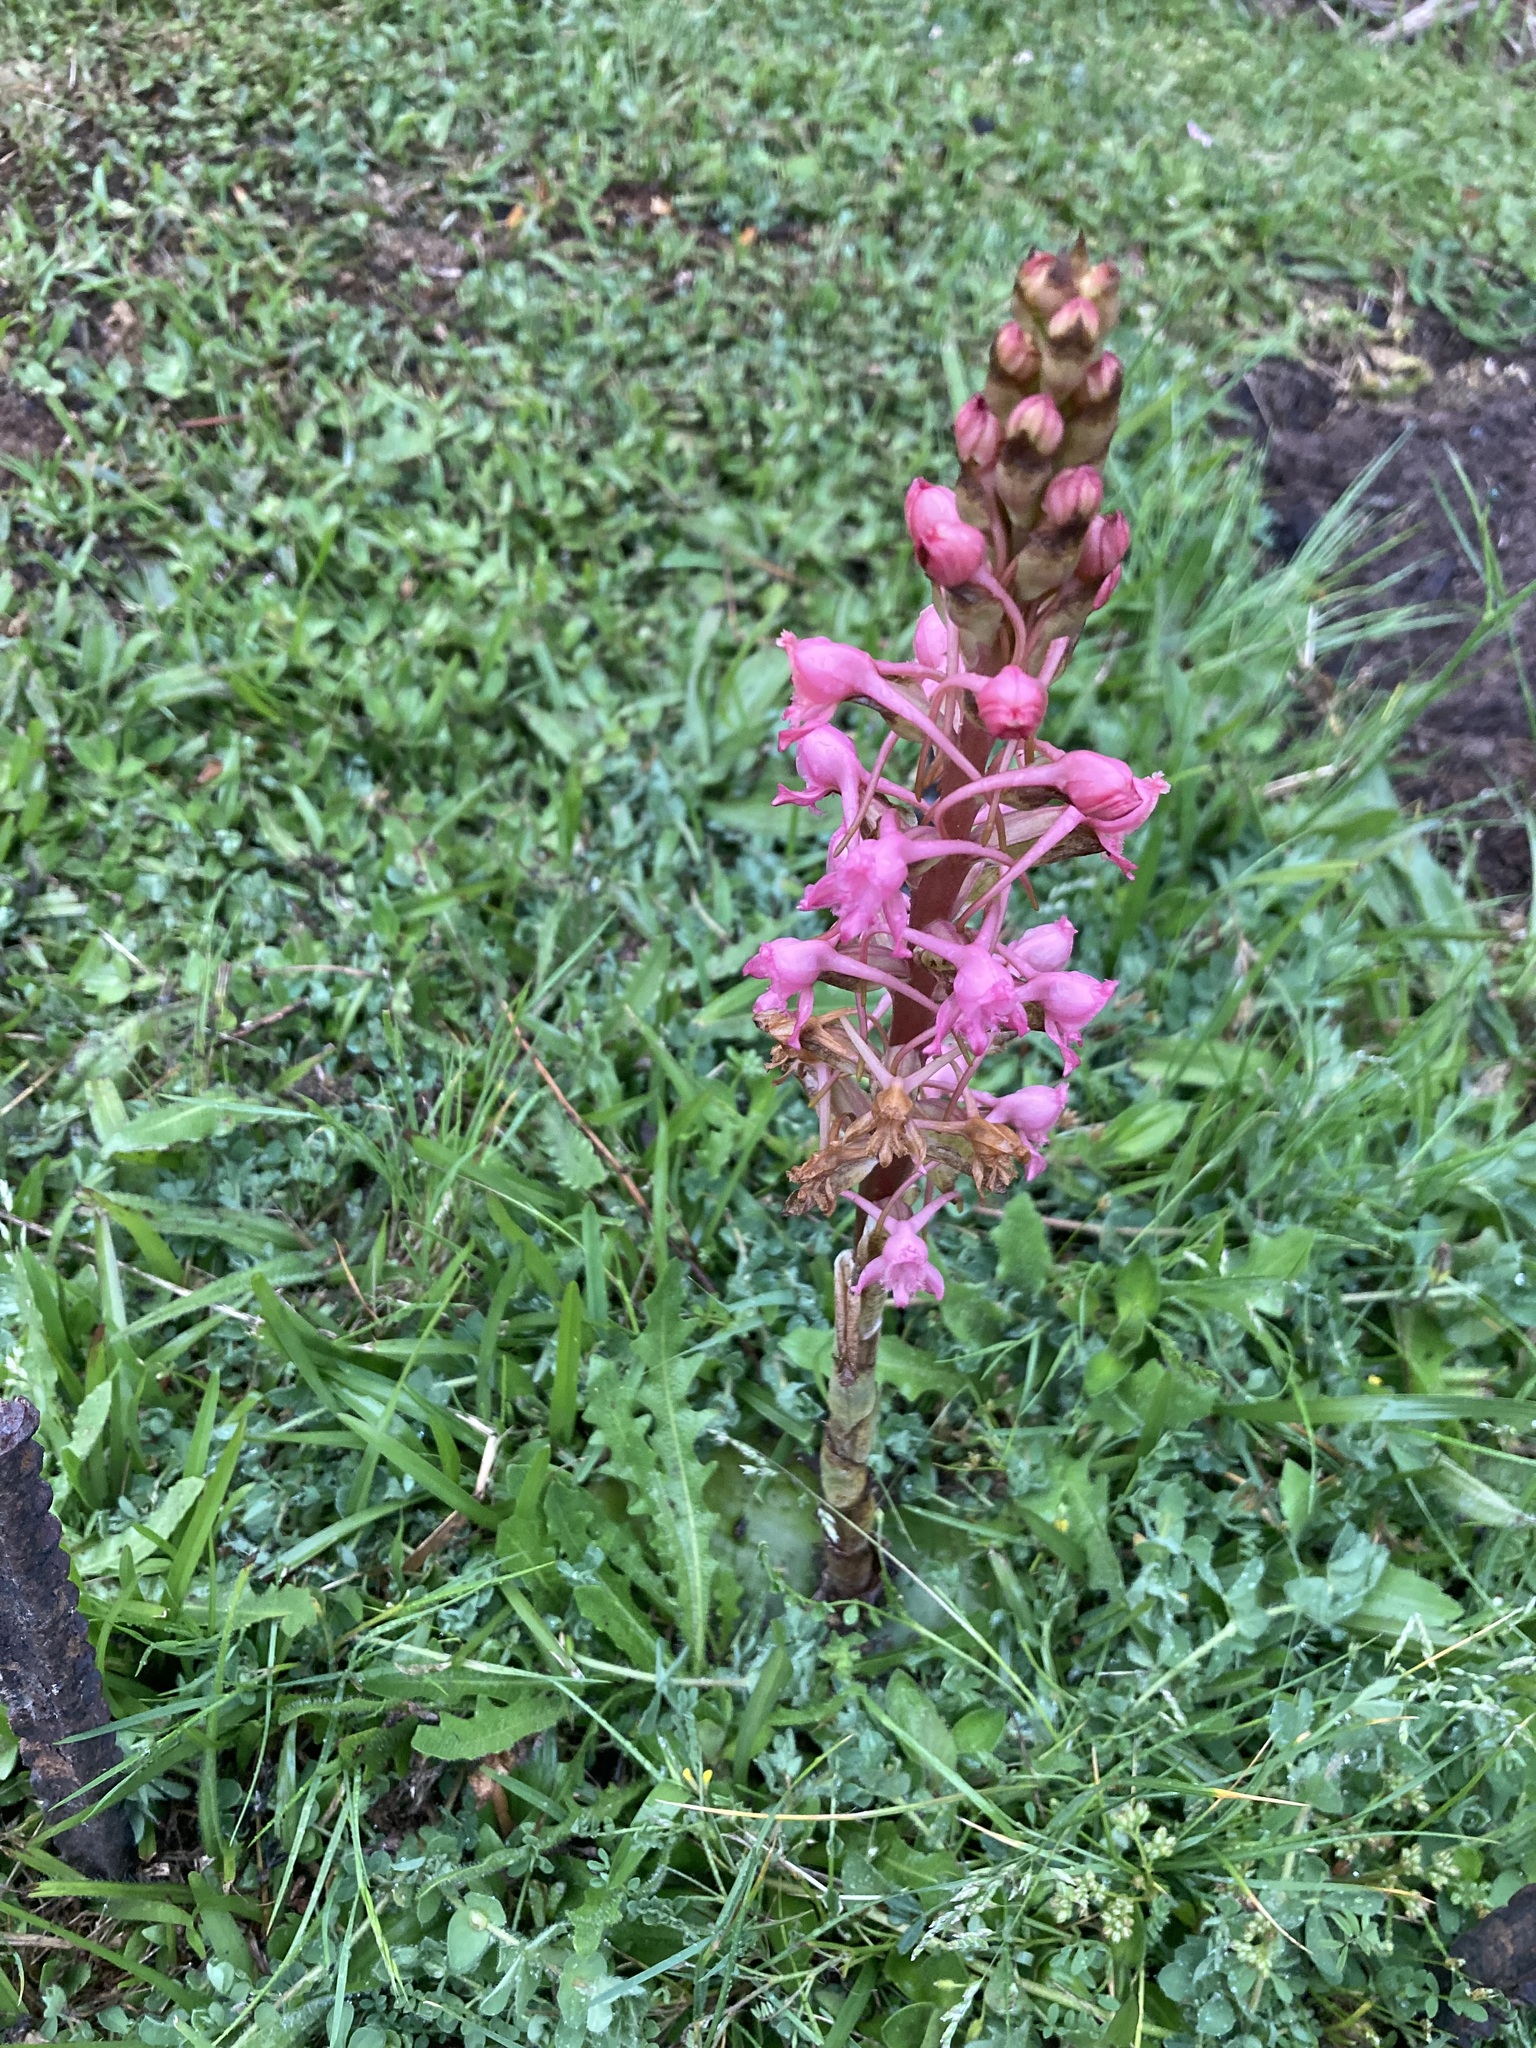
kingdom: Plantae
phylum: Tracheophyta
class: Liliopsida
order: Asparagales
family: Orchidaceae
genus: Satyrium
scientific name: Satyrium membranaceum
